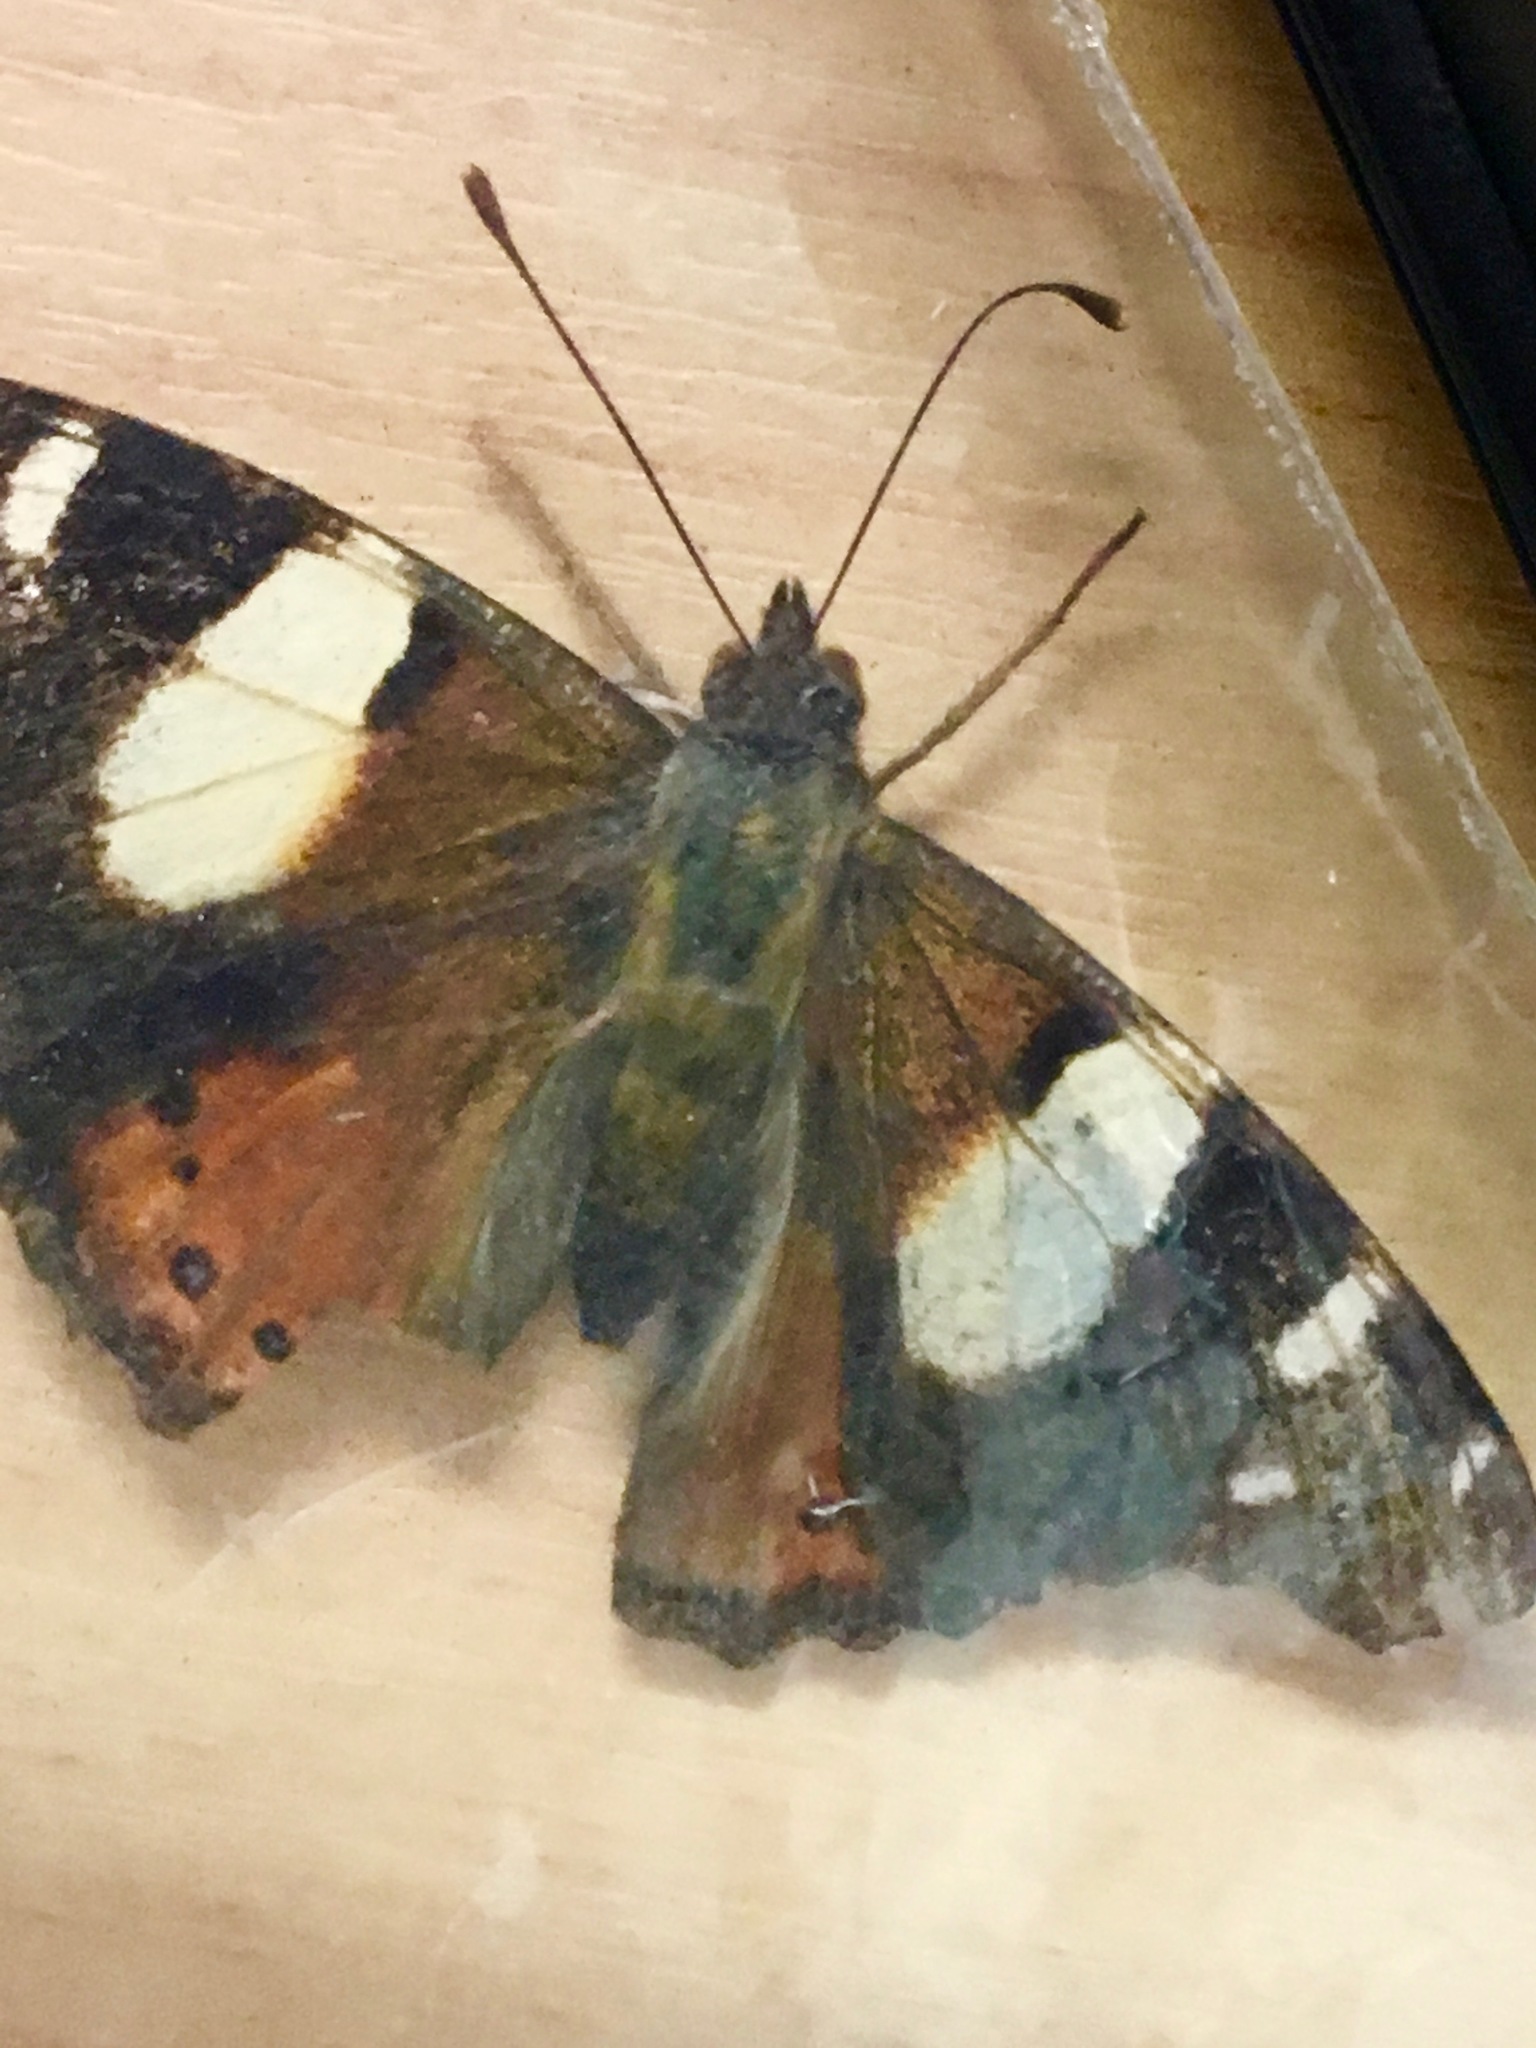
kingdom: Animalia
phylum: Arthropoda
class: Insecta
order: Lepidoptera
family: Nymphalidae
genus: Vanessa
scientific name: Vanessa itea
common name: Yellow admiral
